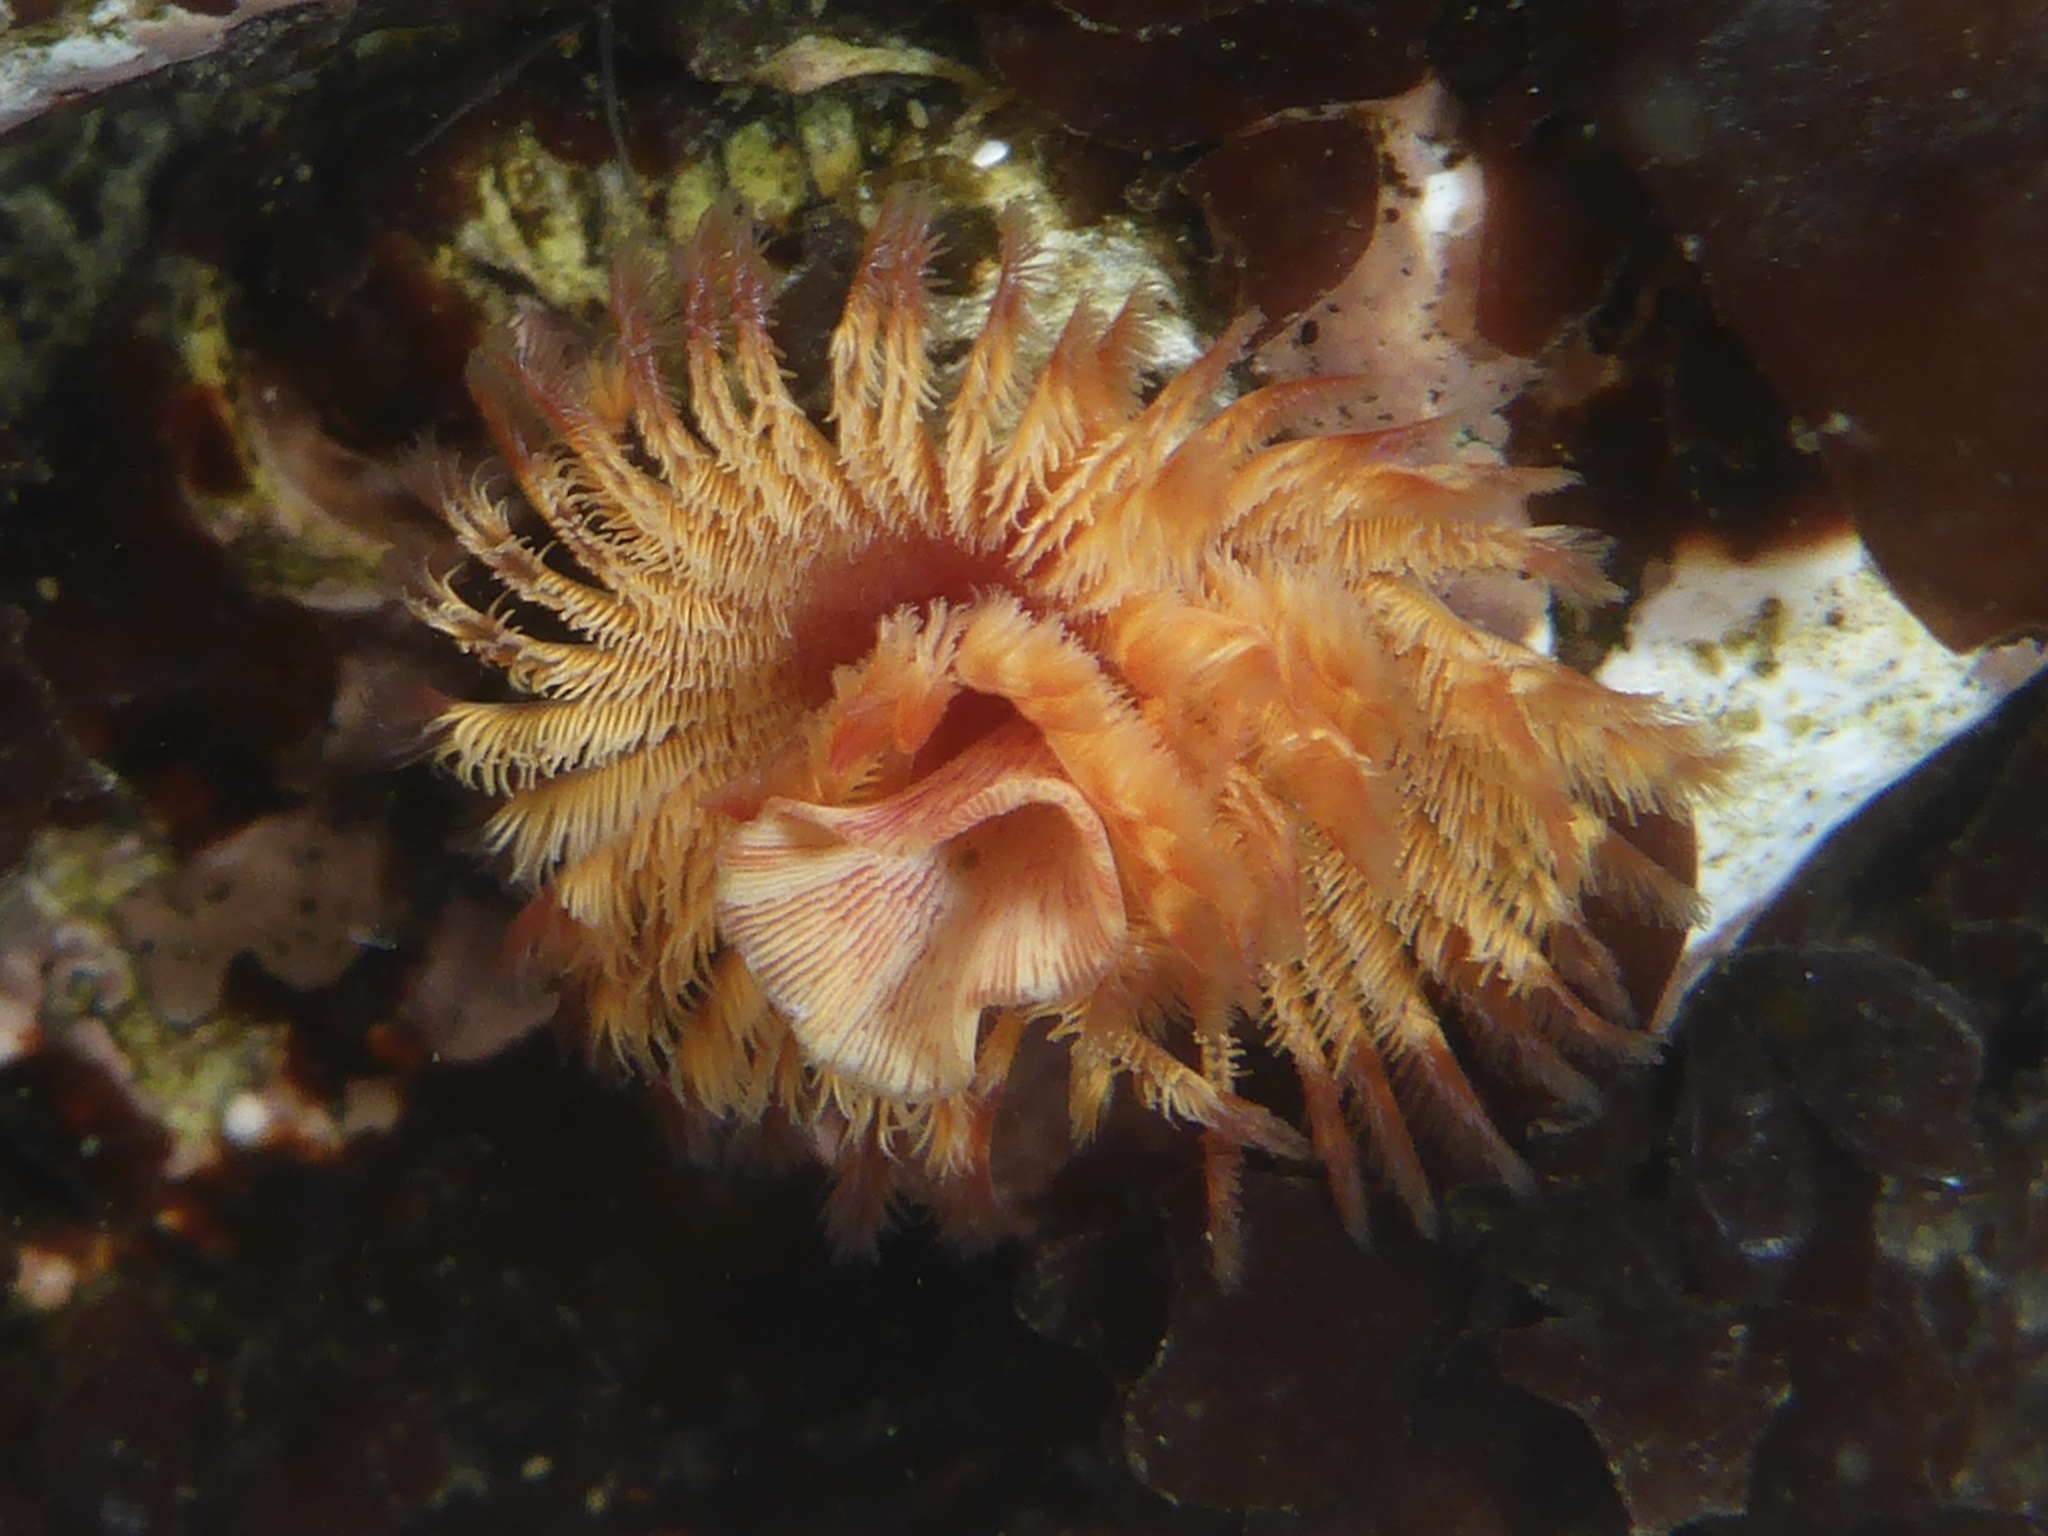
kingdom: Animalia
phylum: Annelida
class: Polychaeta
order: Sabellida
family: Serpulidae
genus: Serpula
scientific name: Serpula columbiana
